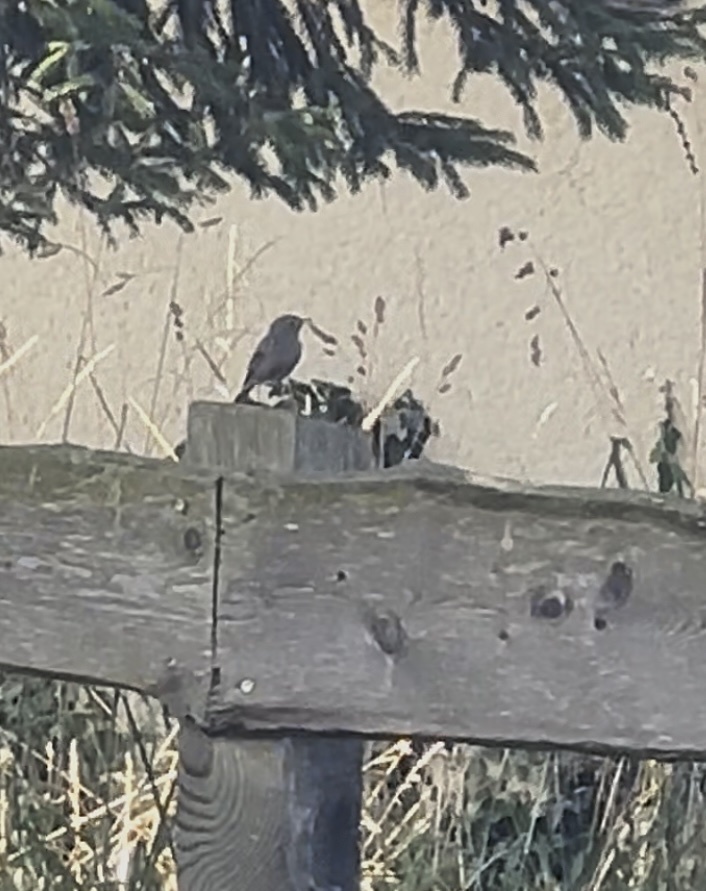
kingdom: Animalia
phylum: Chordata
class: Aves
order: Passeriformes
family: Muscicapidae
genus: Phoenicurus
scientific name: Phoenicurus ochruros
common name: Black redstart
